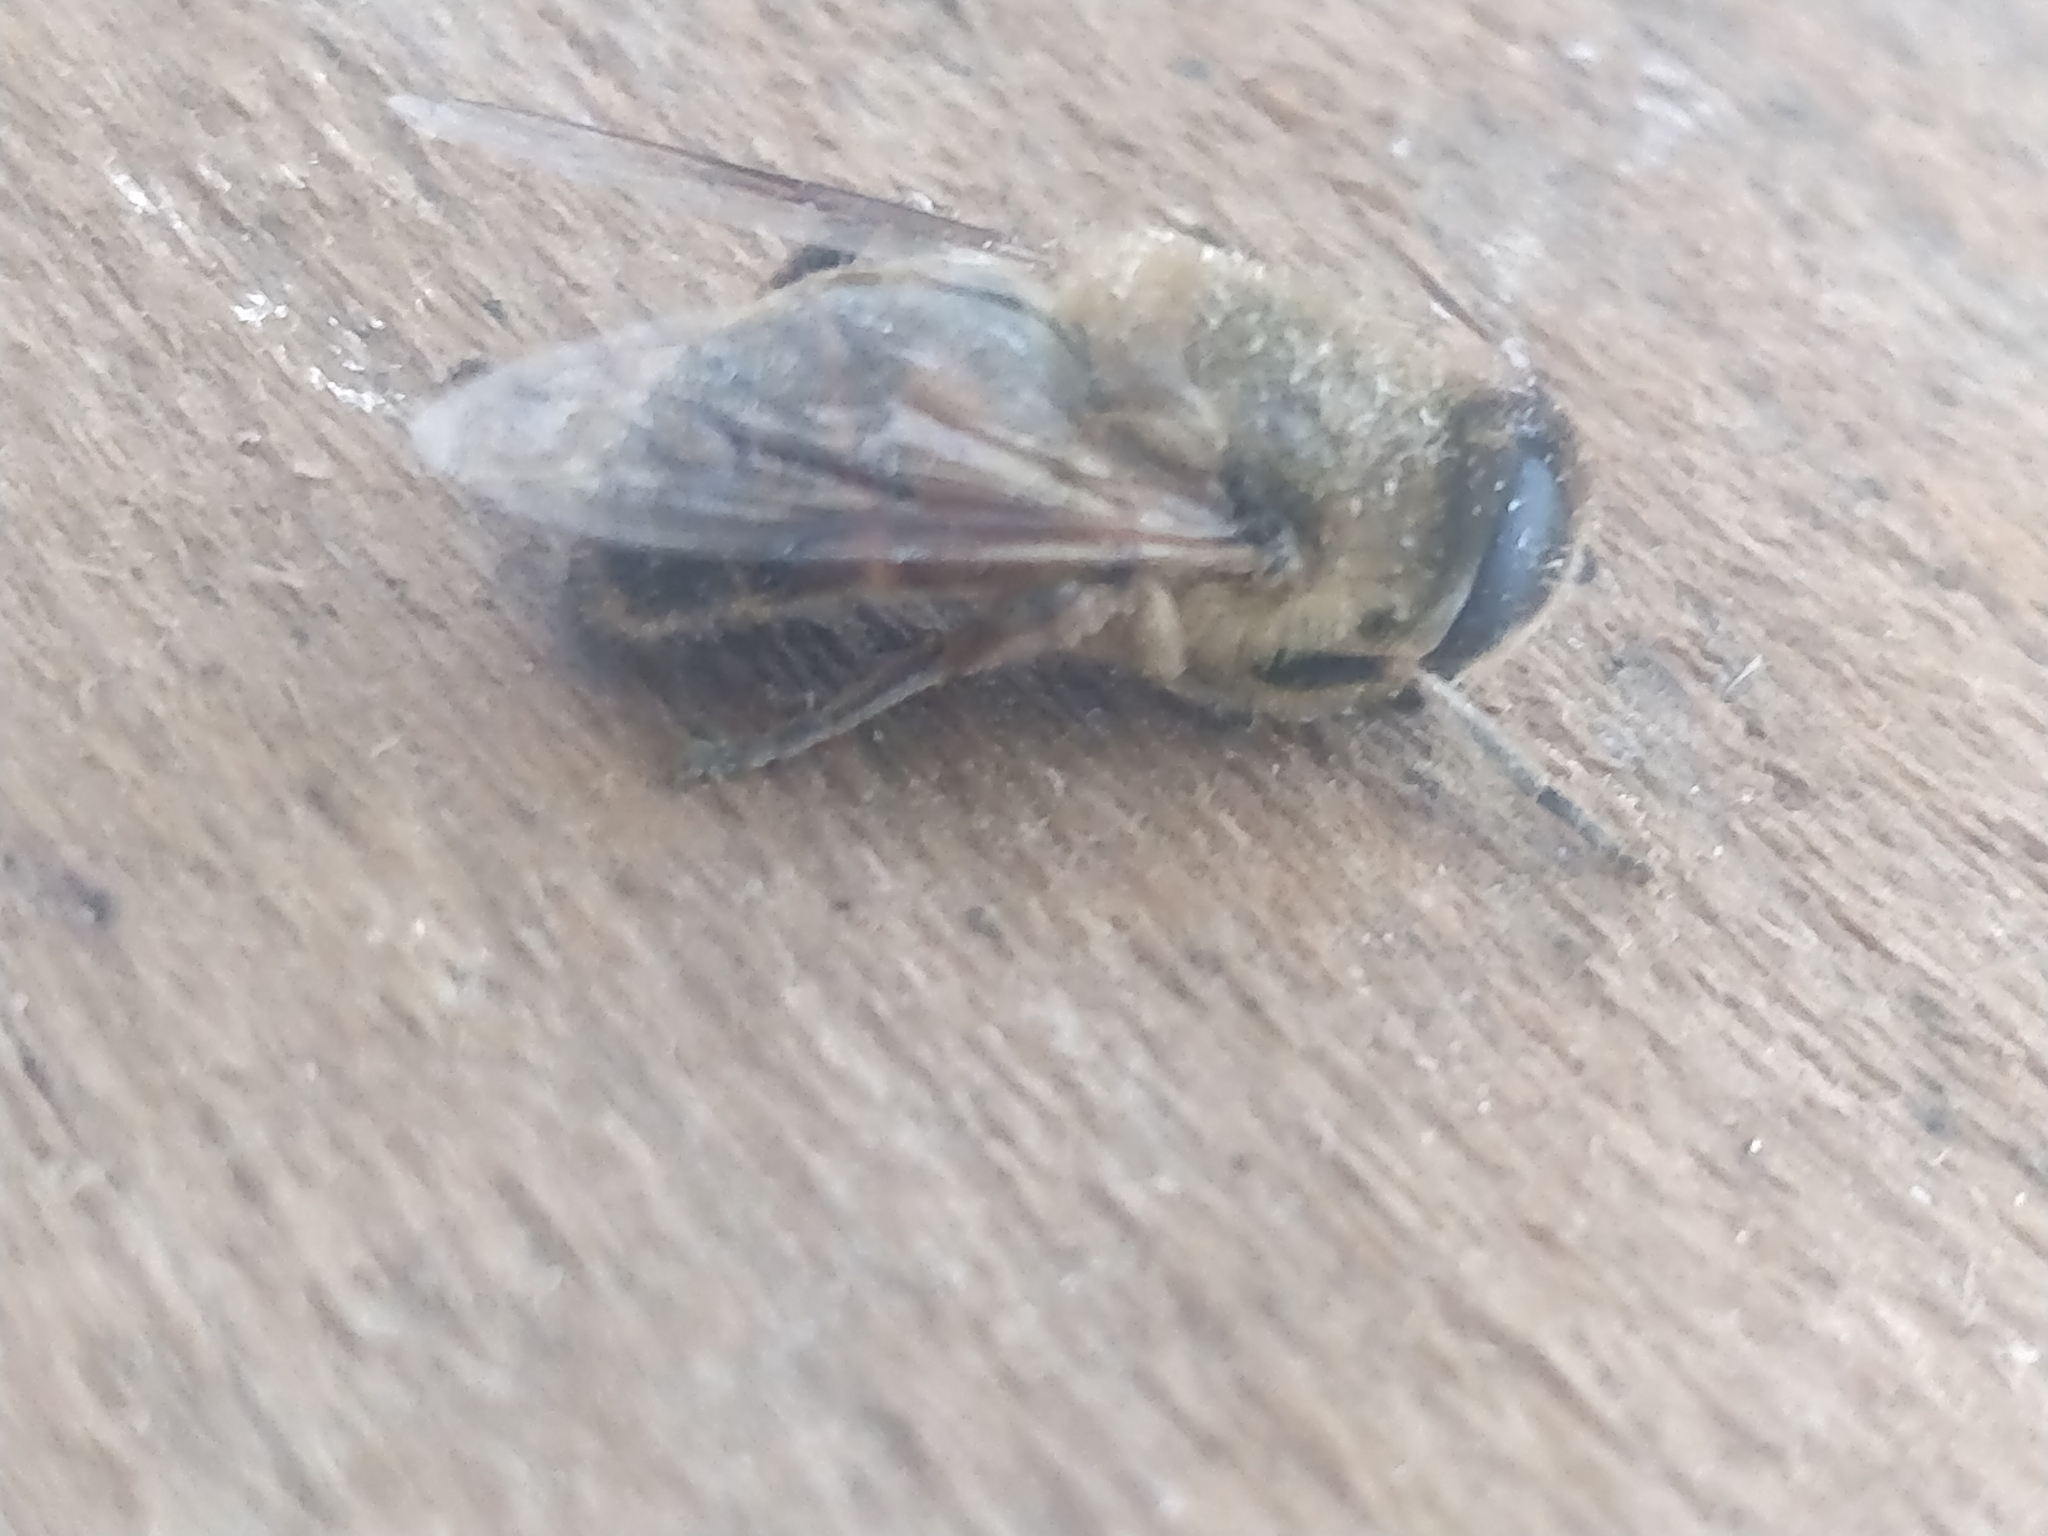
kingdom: Animalia
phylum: Arthropoda
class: Insecta
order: Diptera
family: Syrphidae
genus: Eristalis
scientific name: Eristalis tenax
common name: Drone fly
